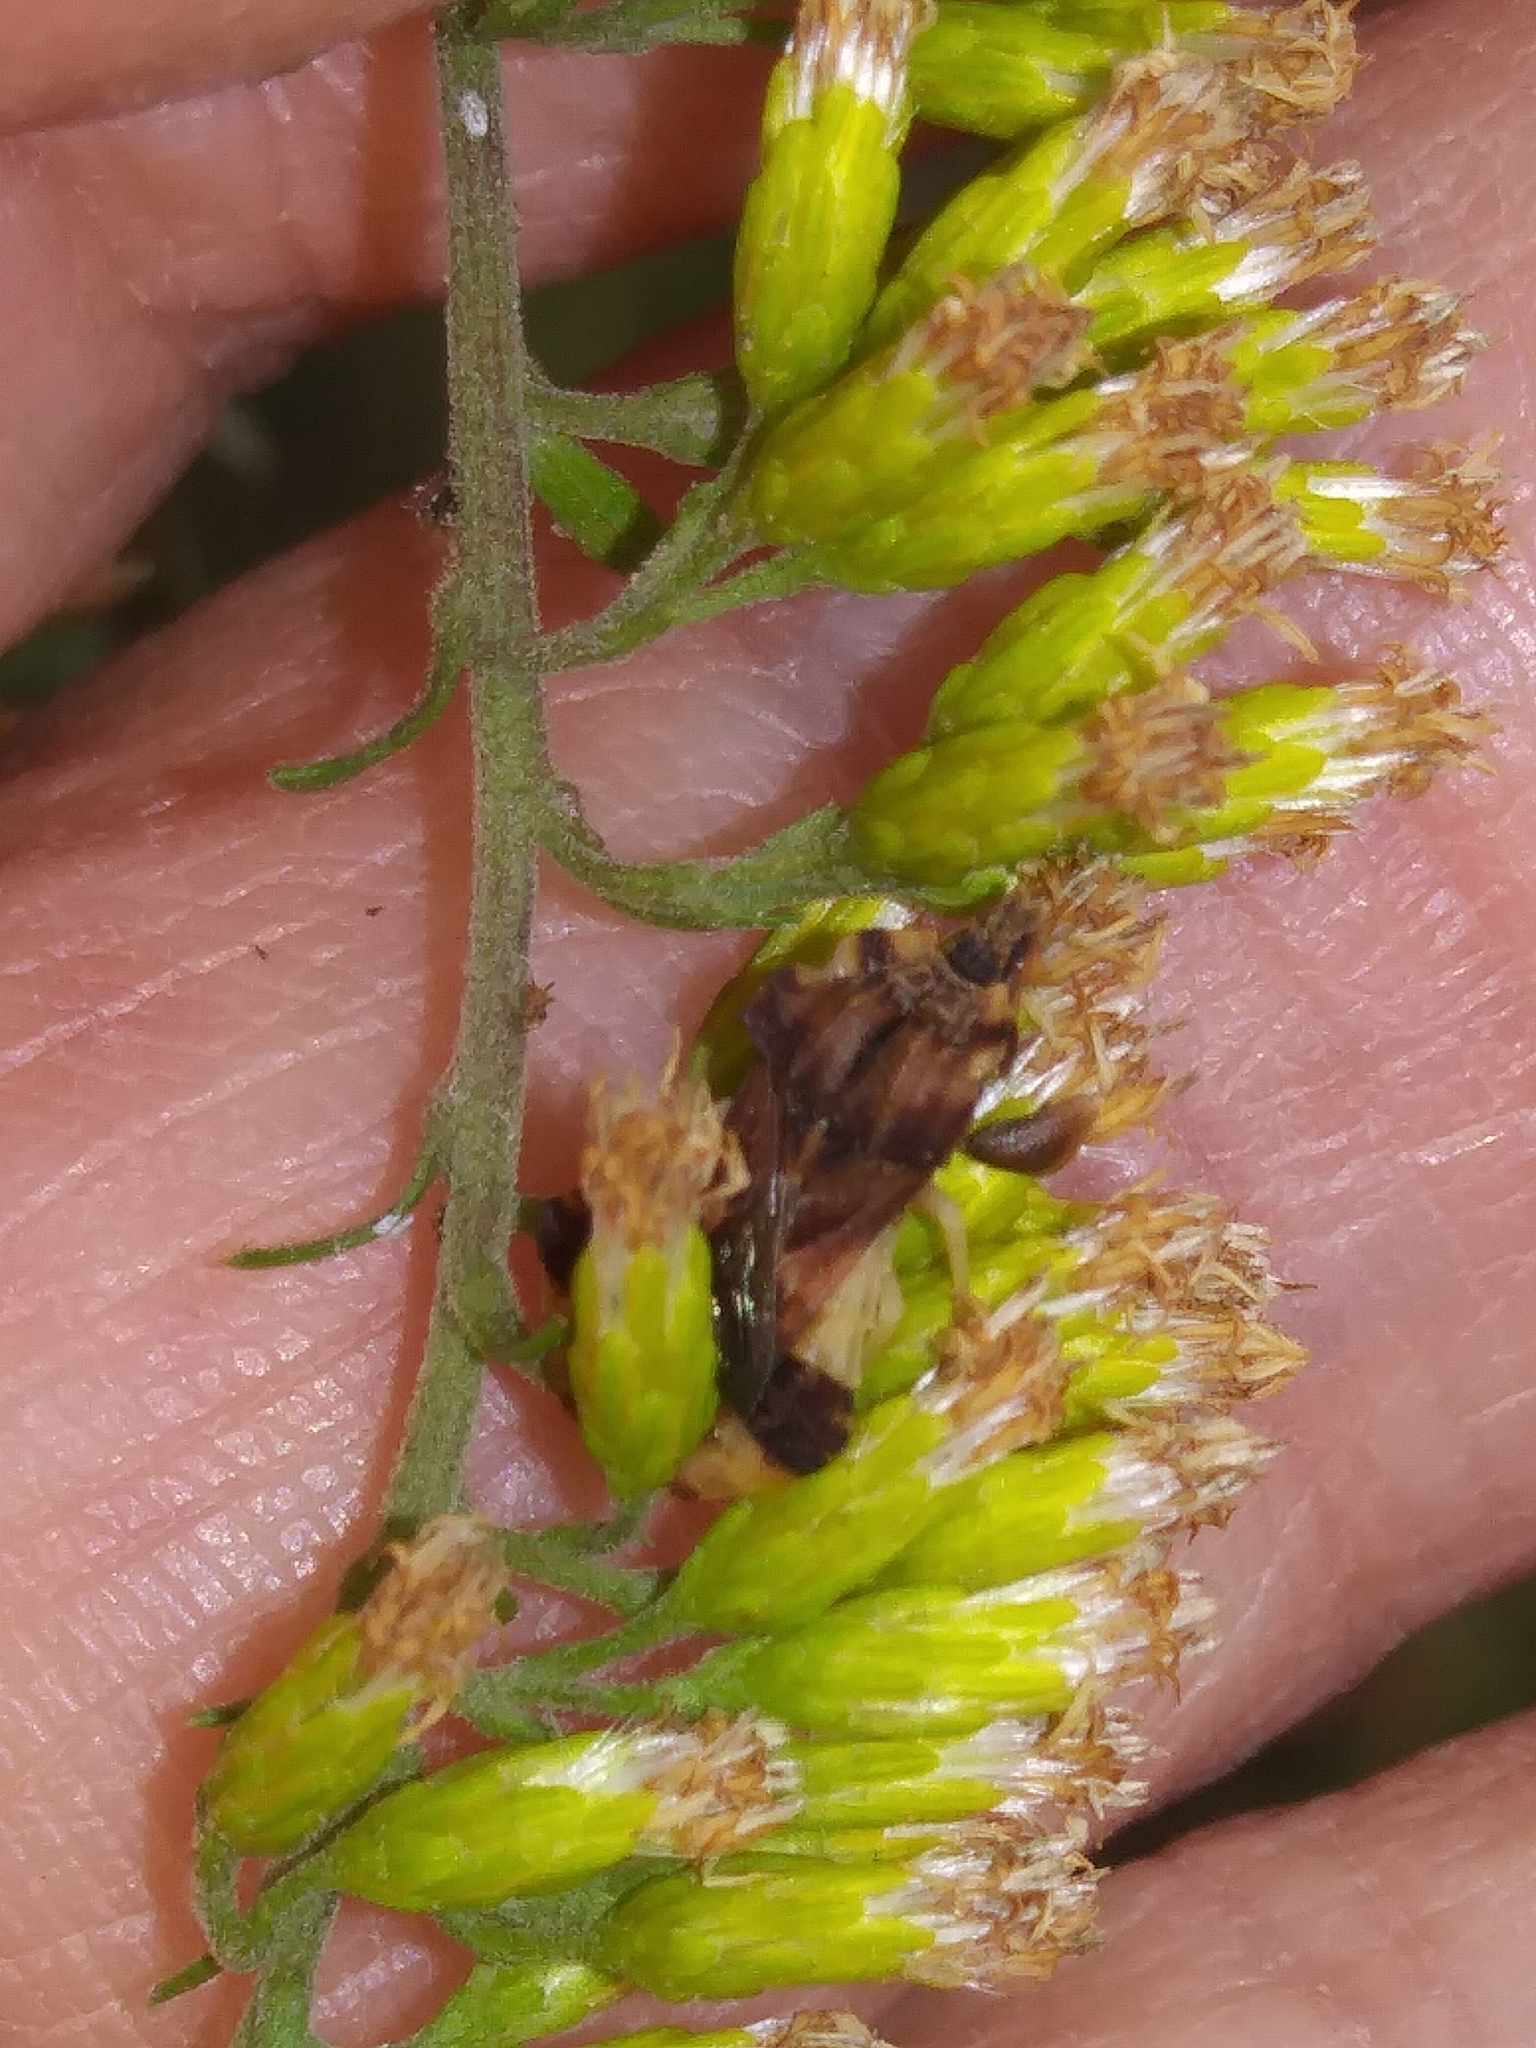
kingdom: Animalia
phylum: Arthropoda
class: Insecta
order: Hemiptera
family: Reduviidae
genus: Phymata
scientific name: Phymata fasciata
